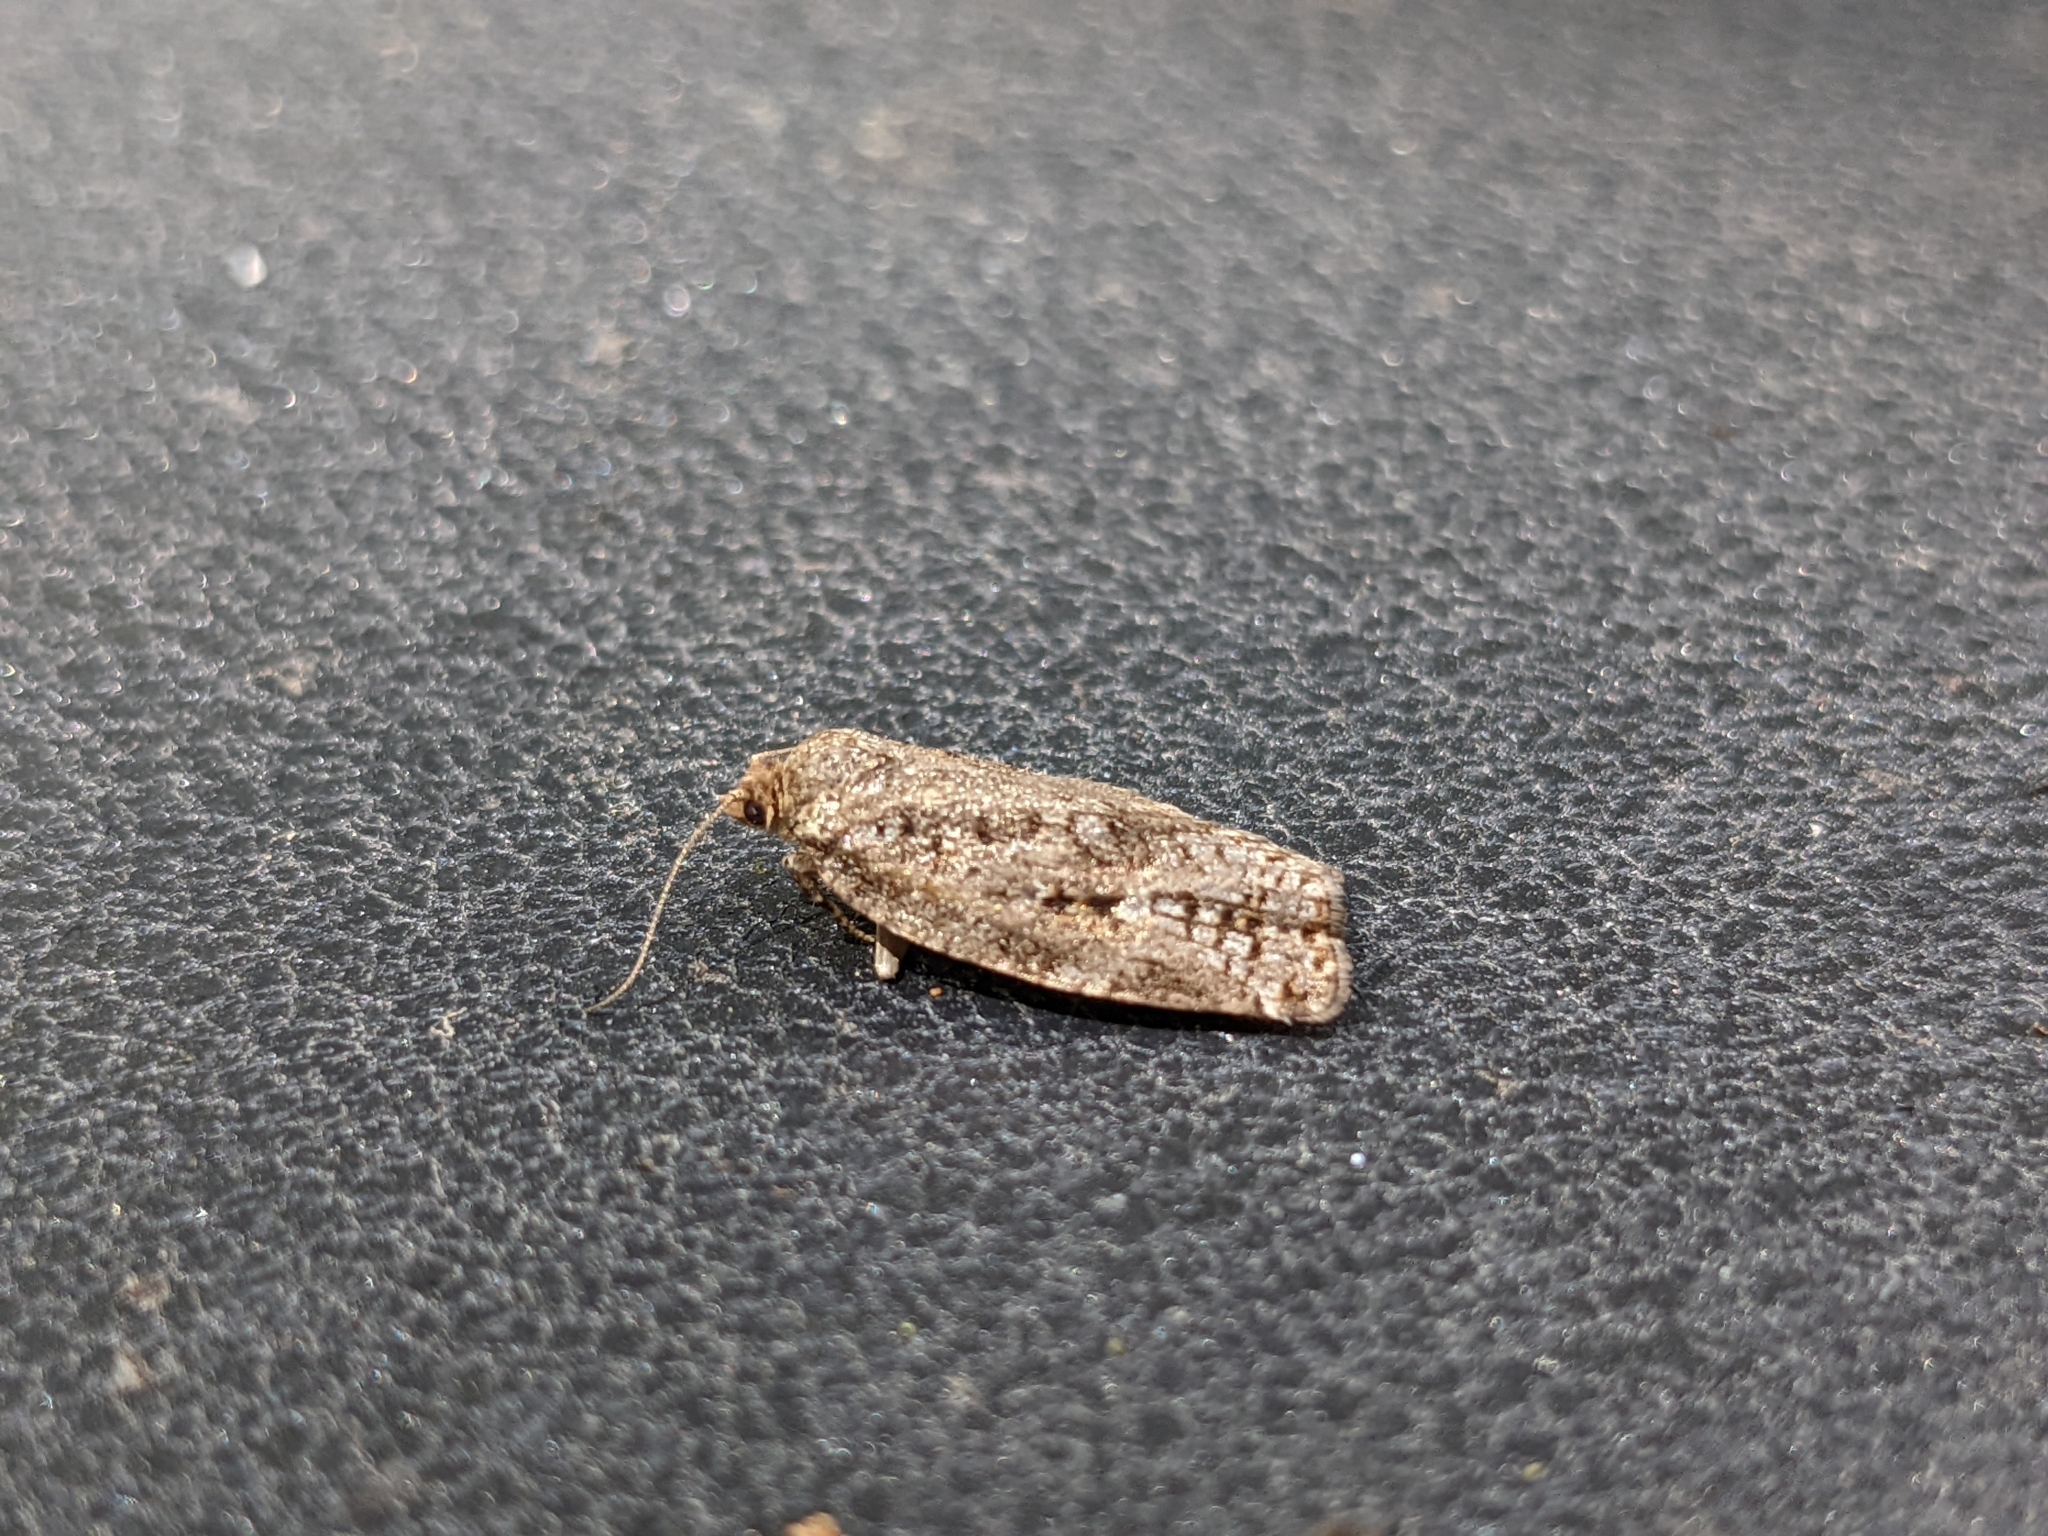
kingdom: Animalia
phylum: Arthropoda
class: Insecta
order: Lepidoptera
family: Tortricidae
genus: Choristoneura
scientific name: Choristoneura fumiferana
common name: Spruce budworm
